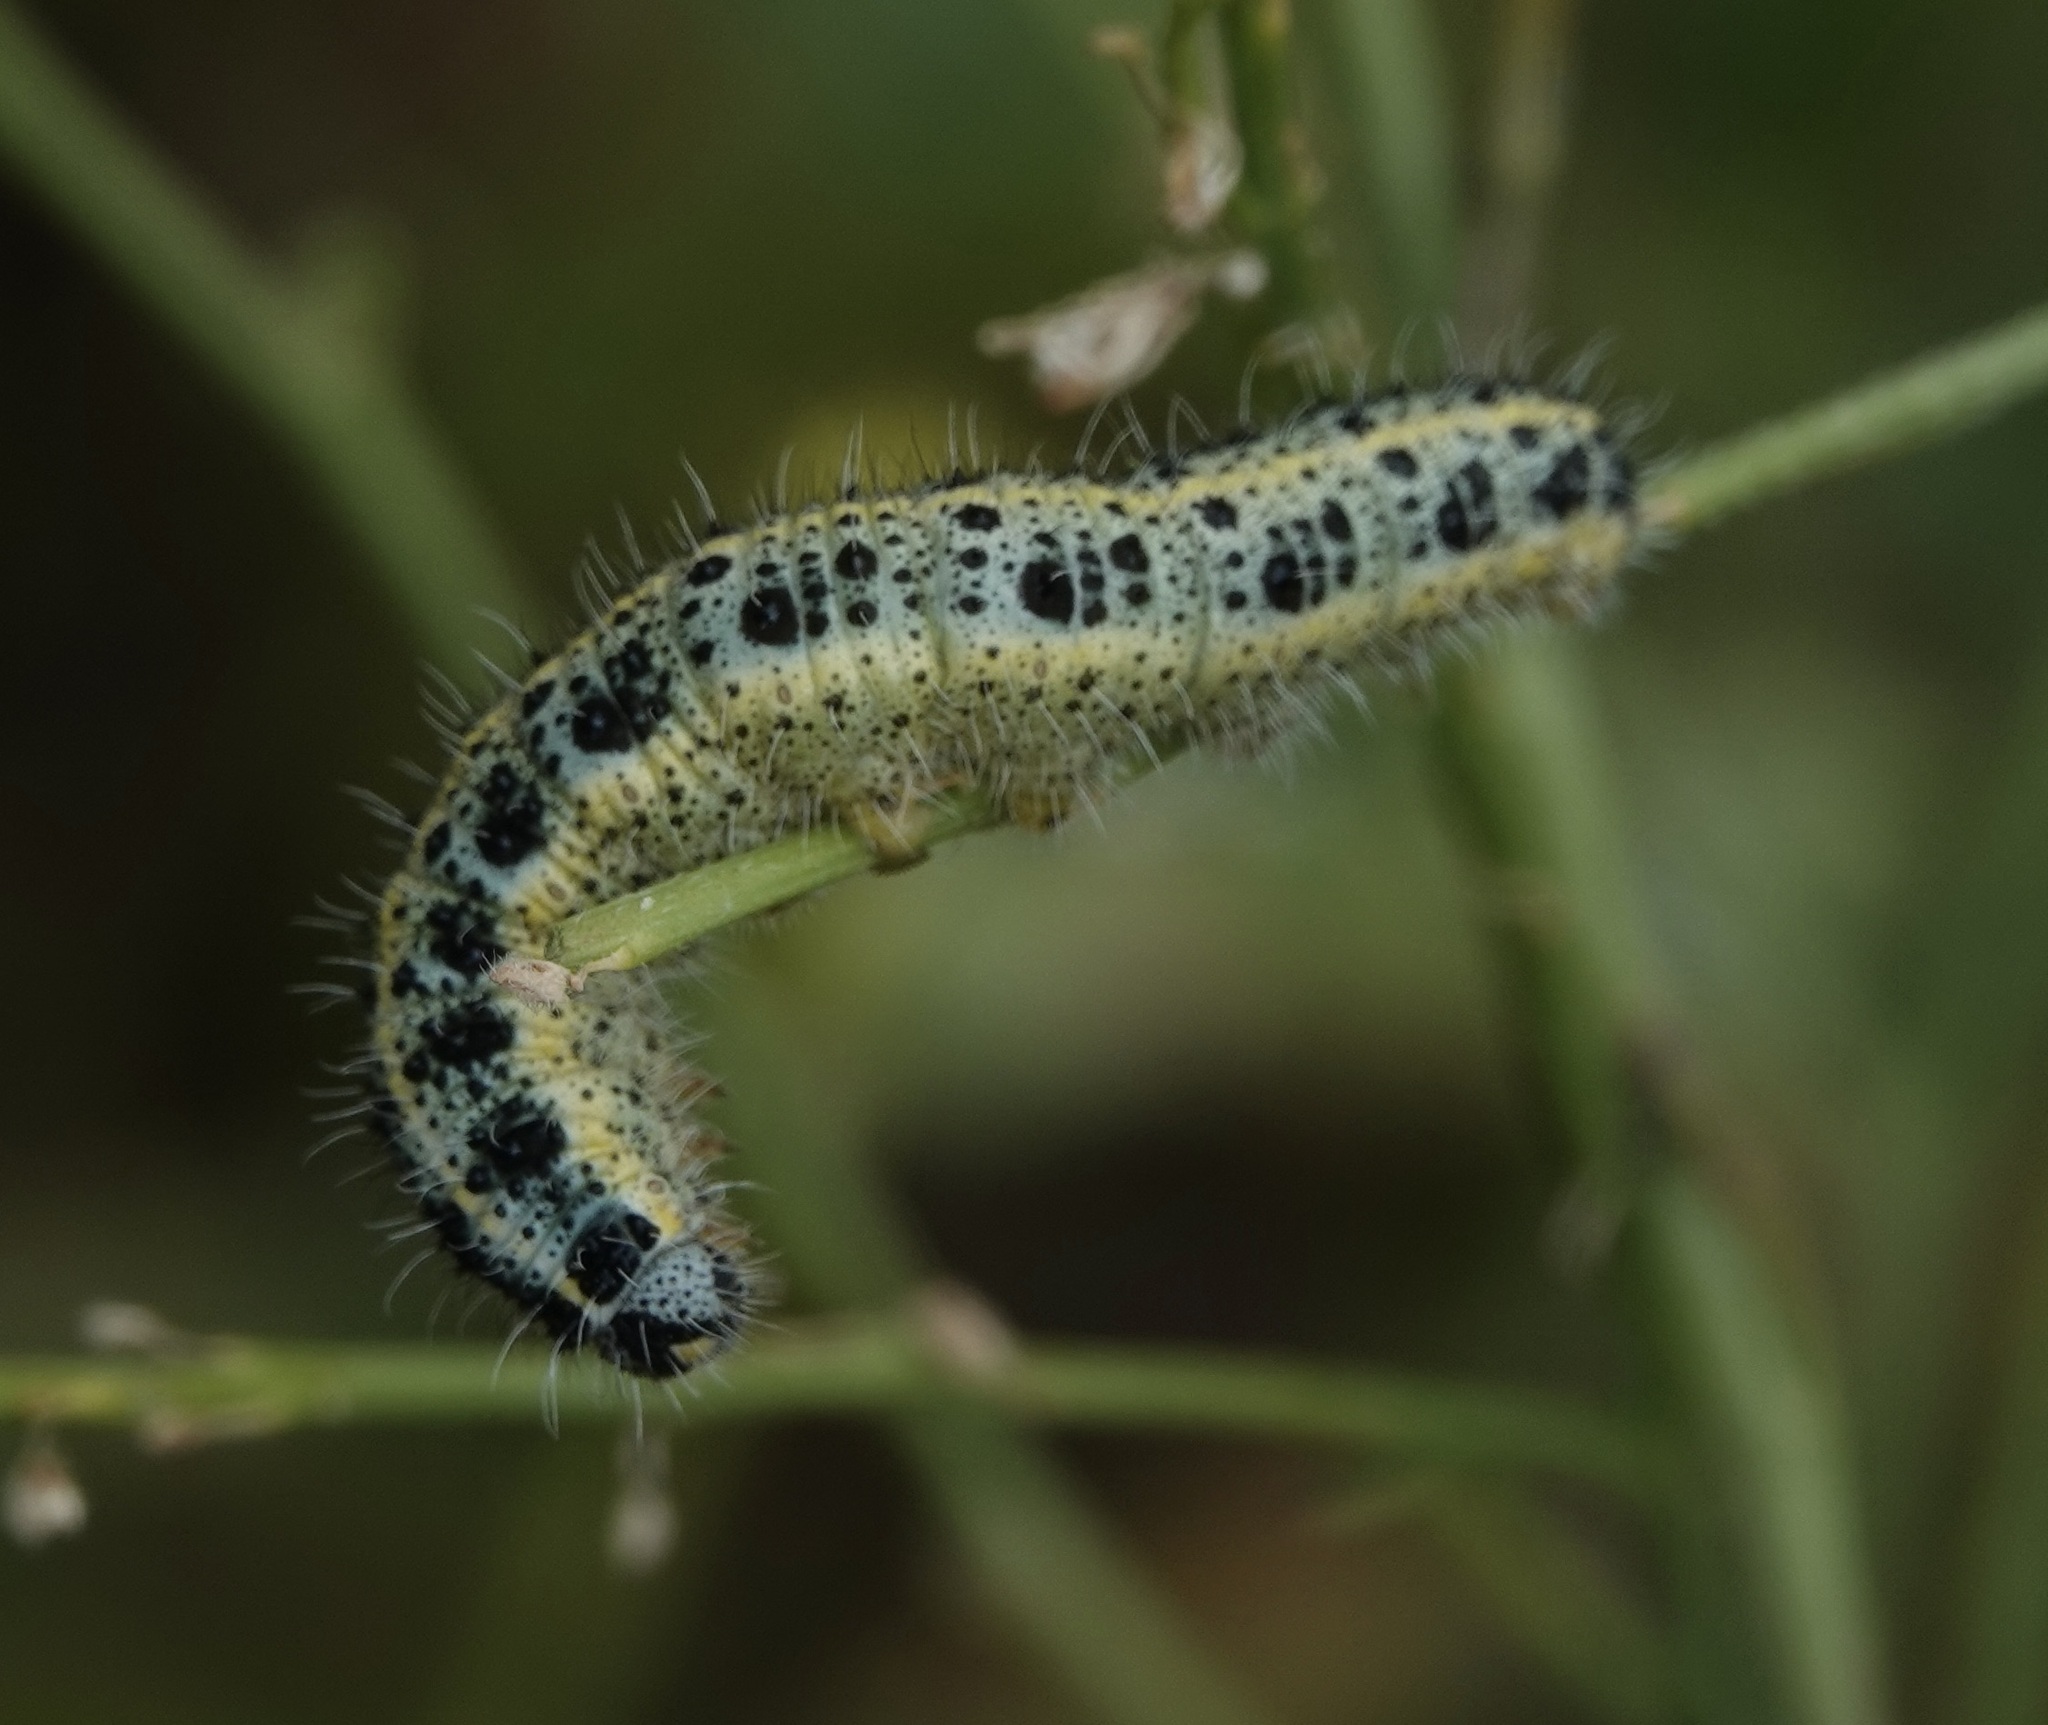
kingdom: Animalia
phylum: Arthropoda
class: Insecta
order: Lepidoptera
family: Pieridae
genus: Pieris
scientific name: Pieris brassicae
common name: Large white
